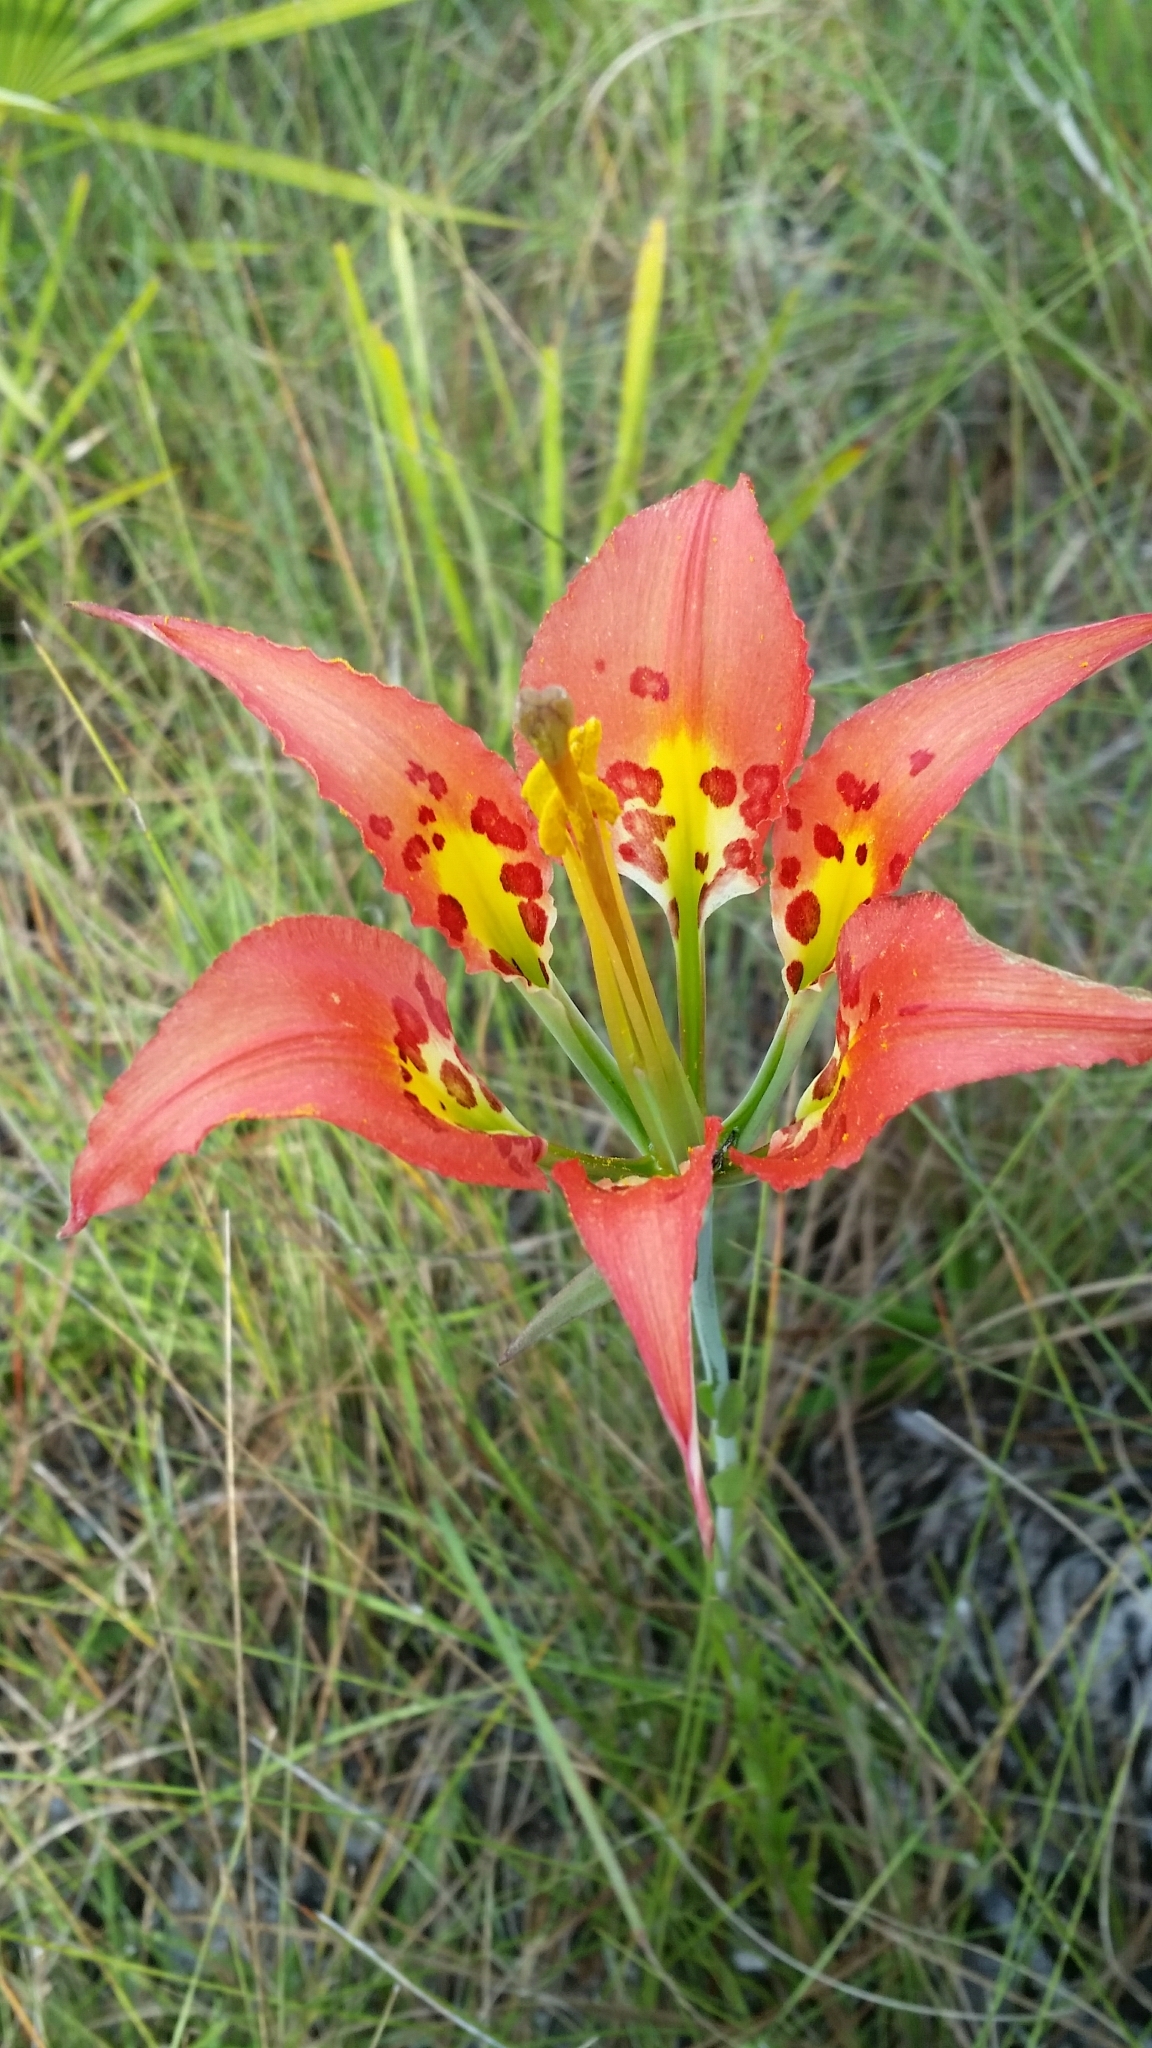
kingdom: Plantae
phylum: Tracheophyta
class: Liliopsida
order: Liliales
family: Liliaceae
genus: Lilium
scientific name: Lilium catesbaei
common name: Catesby's lily
